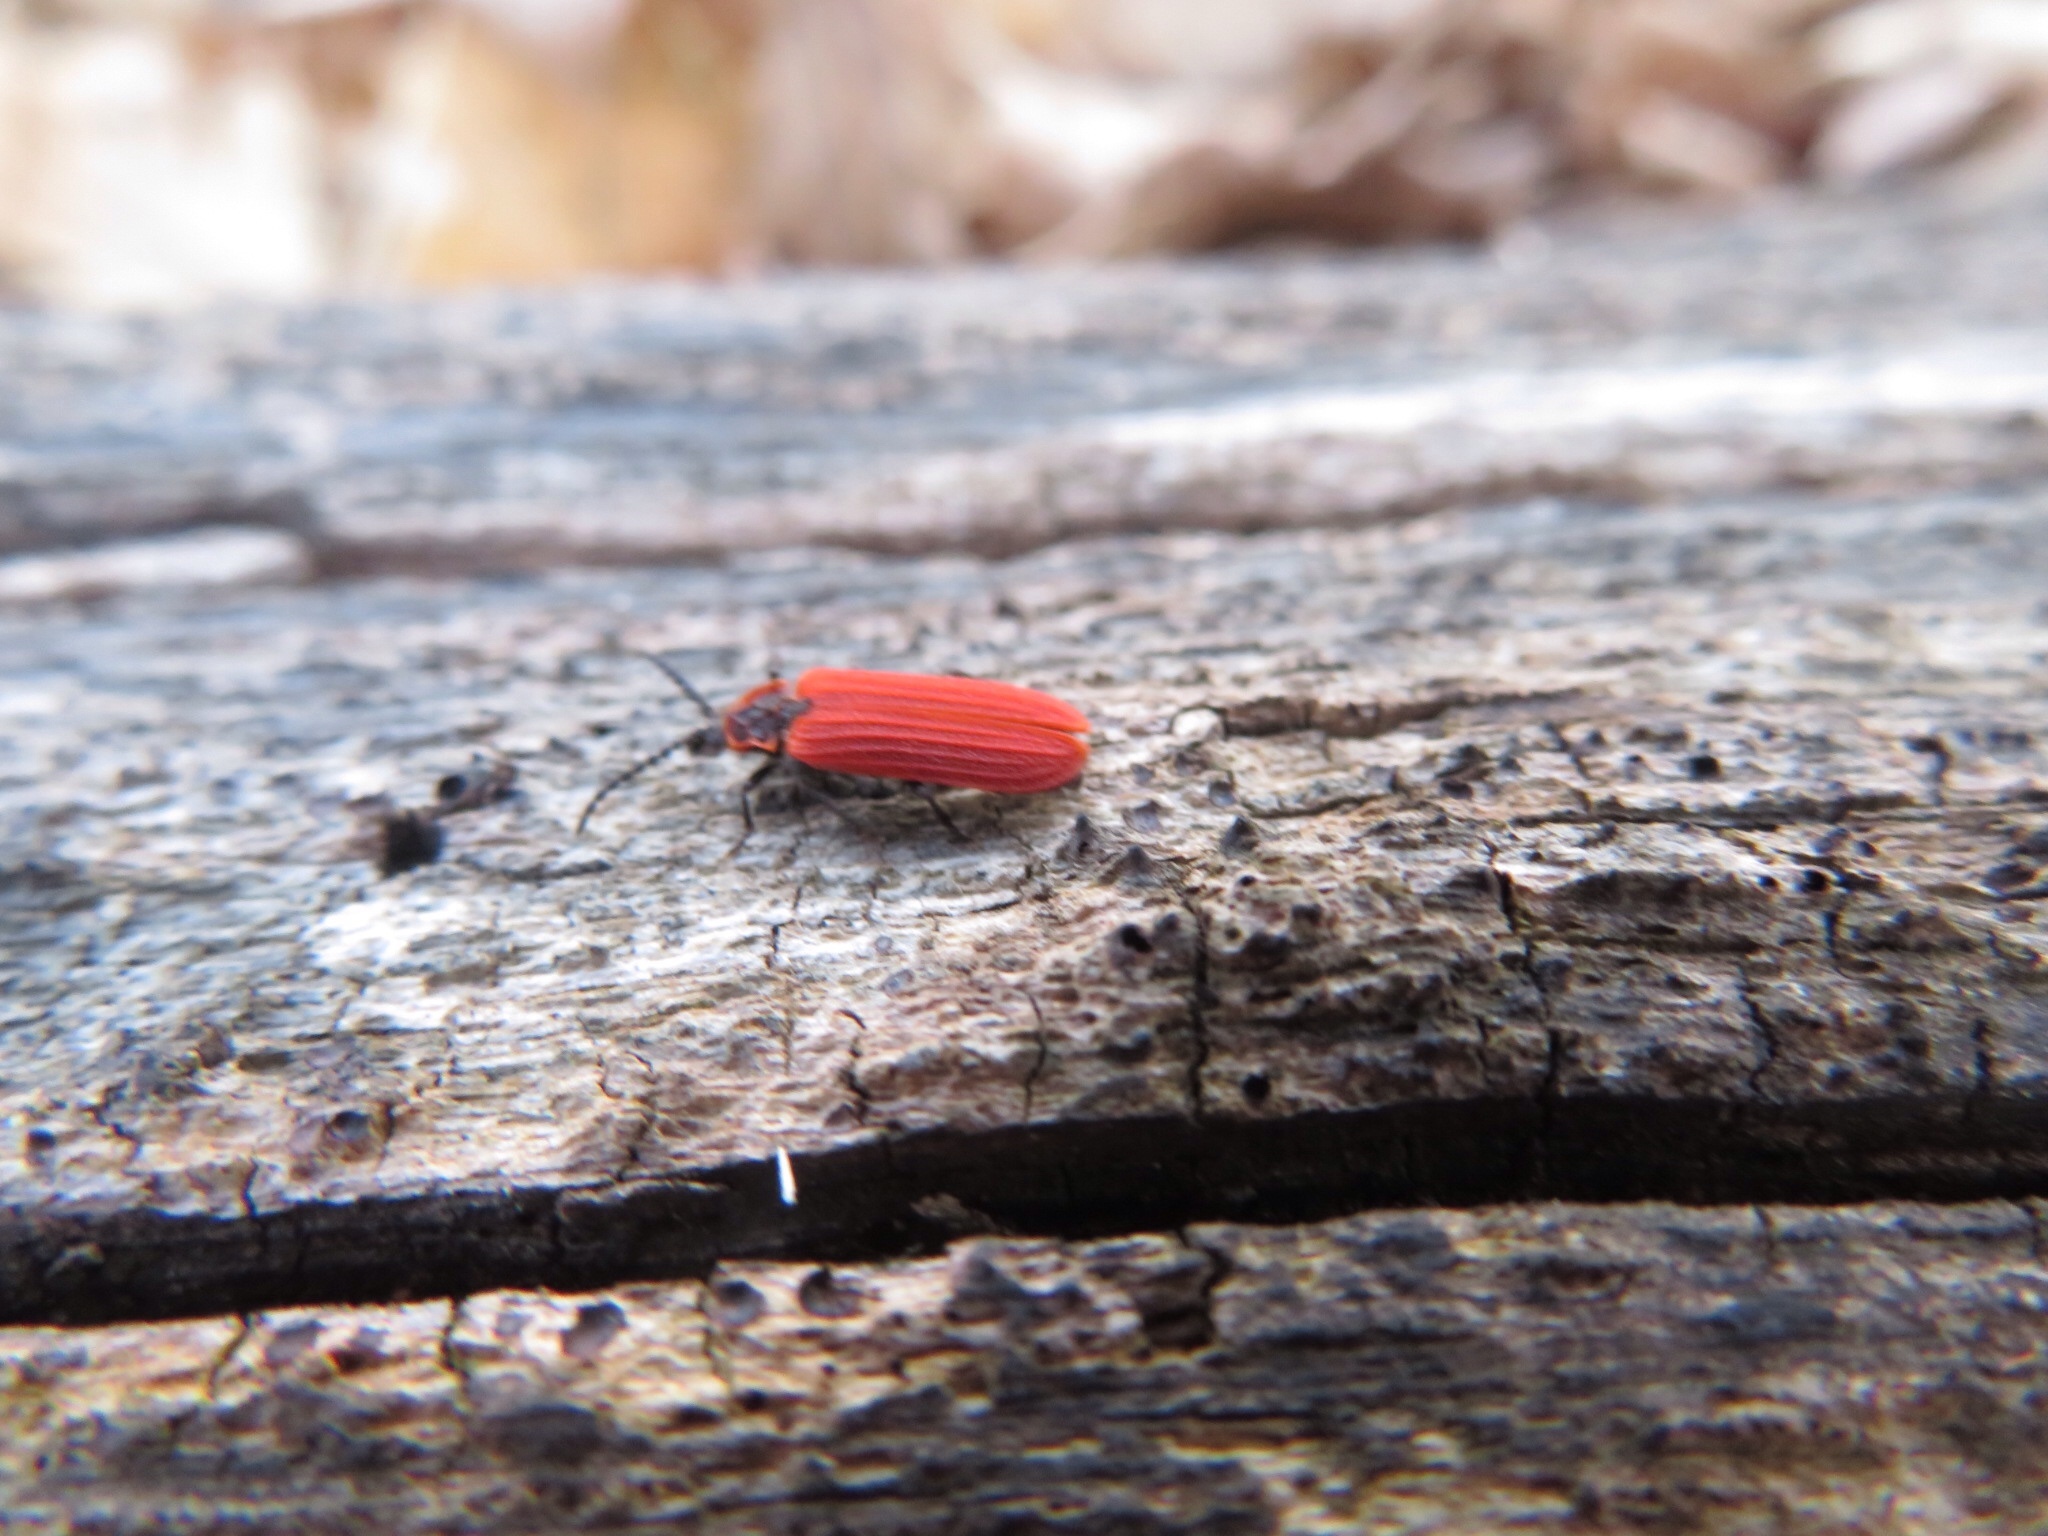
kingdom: Animalia
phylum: Arthropoda
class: Insecta
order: Coleoptera
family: Lycidae
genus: Dictyoptera
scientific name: Dictyoptera aurora
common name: Golden net-winged beetle
